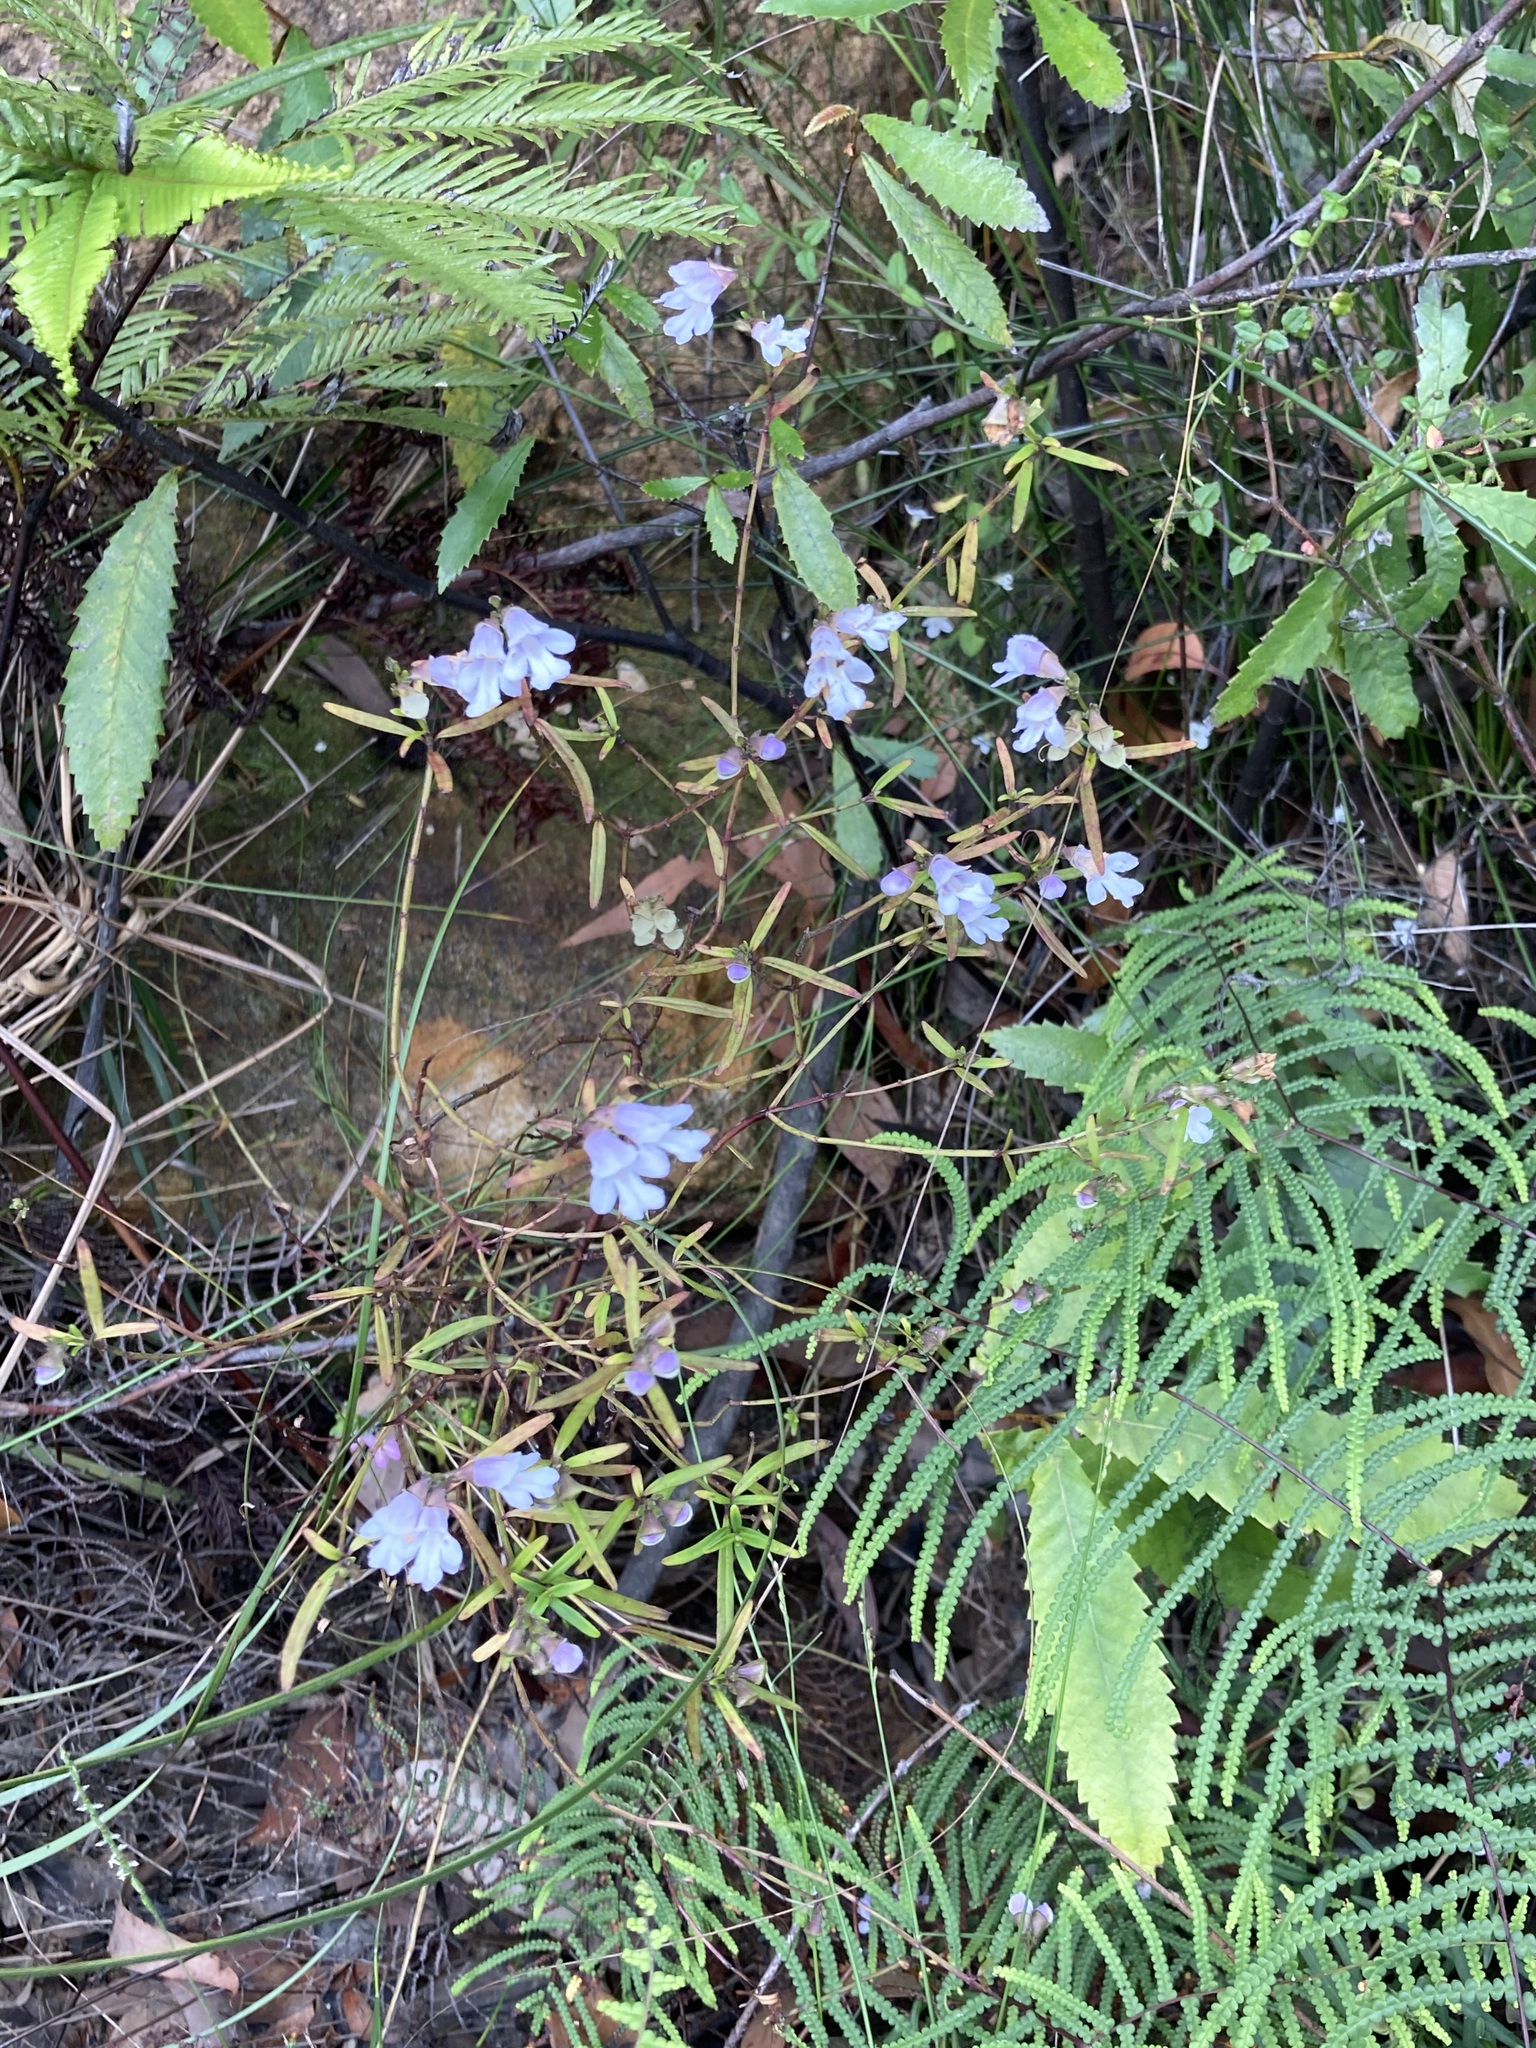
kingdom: Plantae
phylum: Tracheophyta
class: Magnoliopsida
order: Lamiales
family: Lamiaceae
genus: Prostanthera
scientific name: Prostanthera linearis
